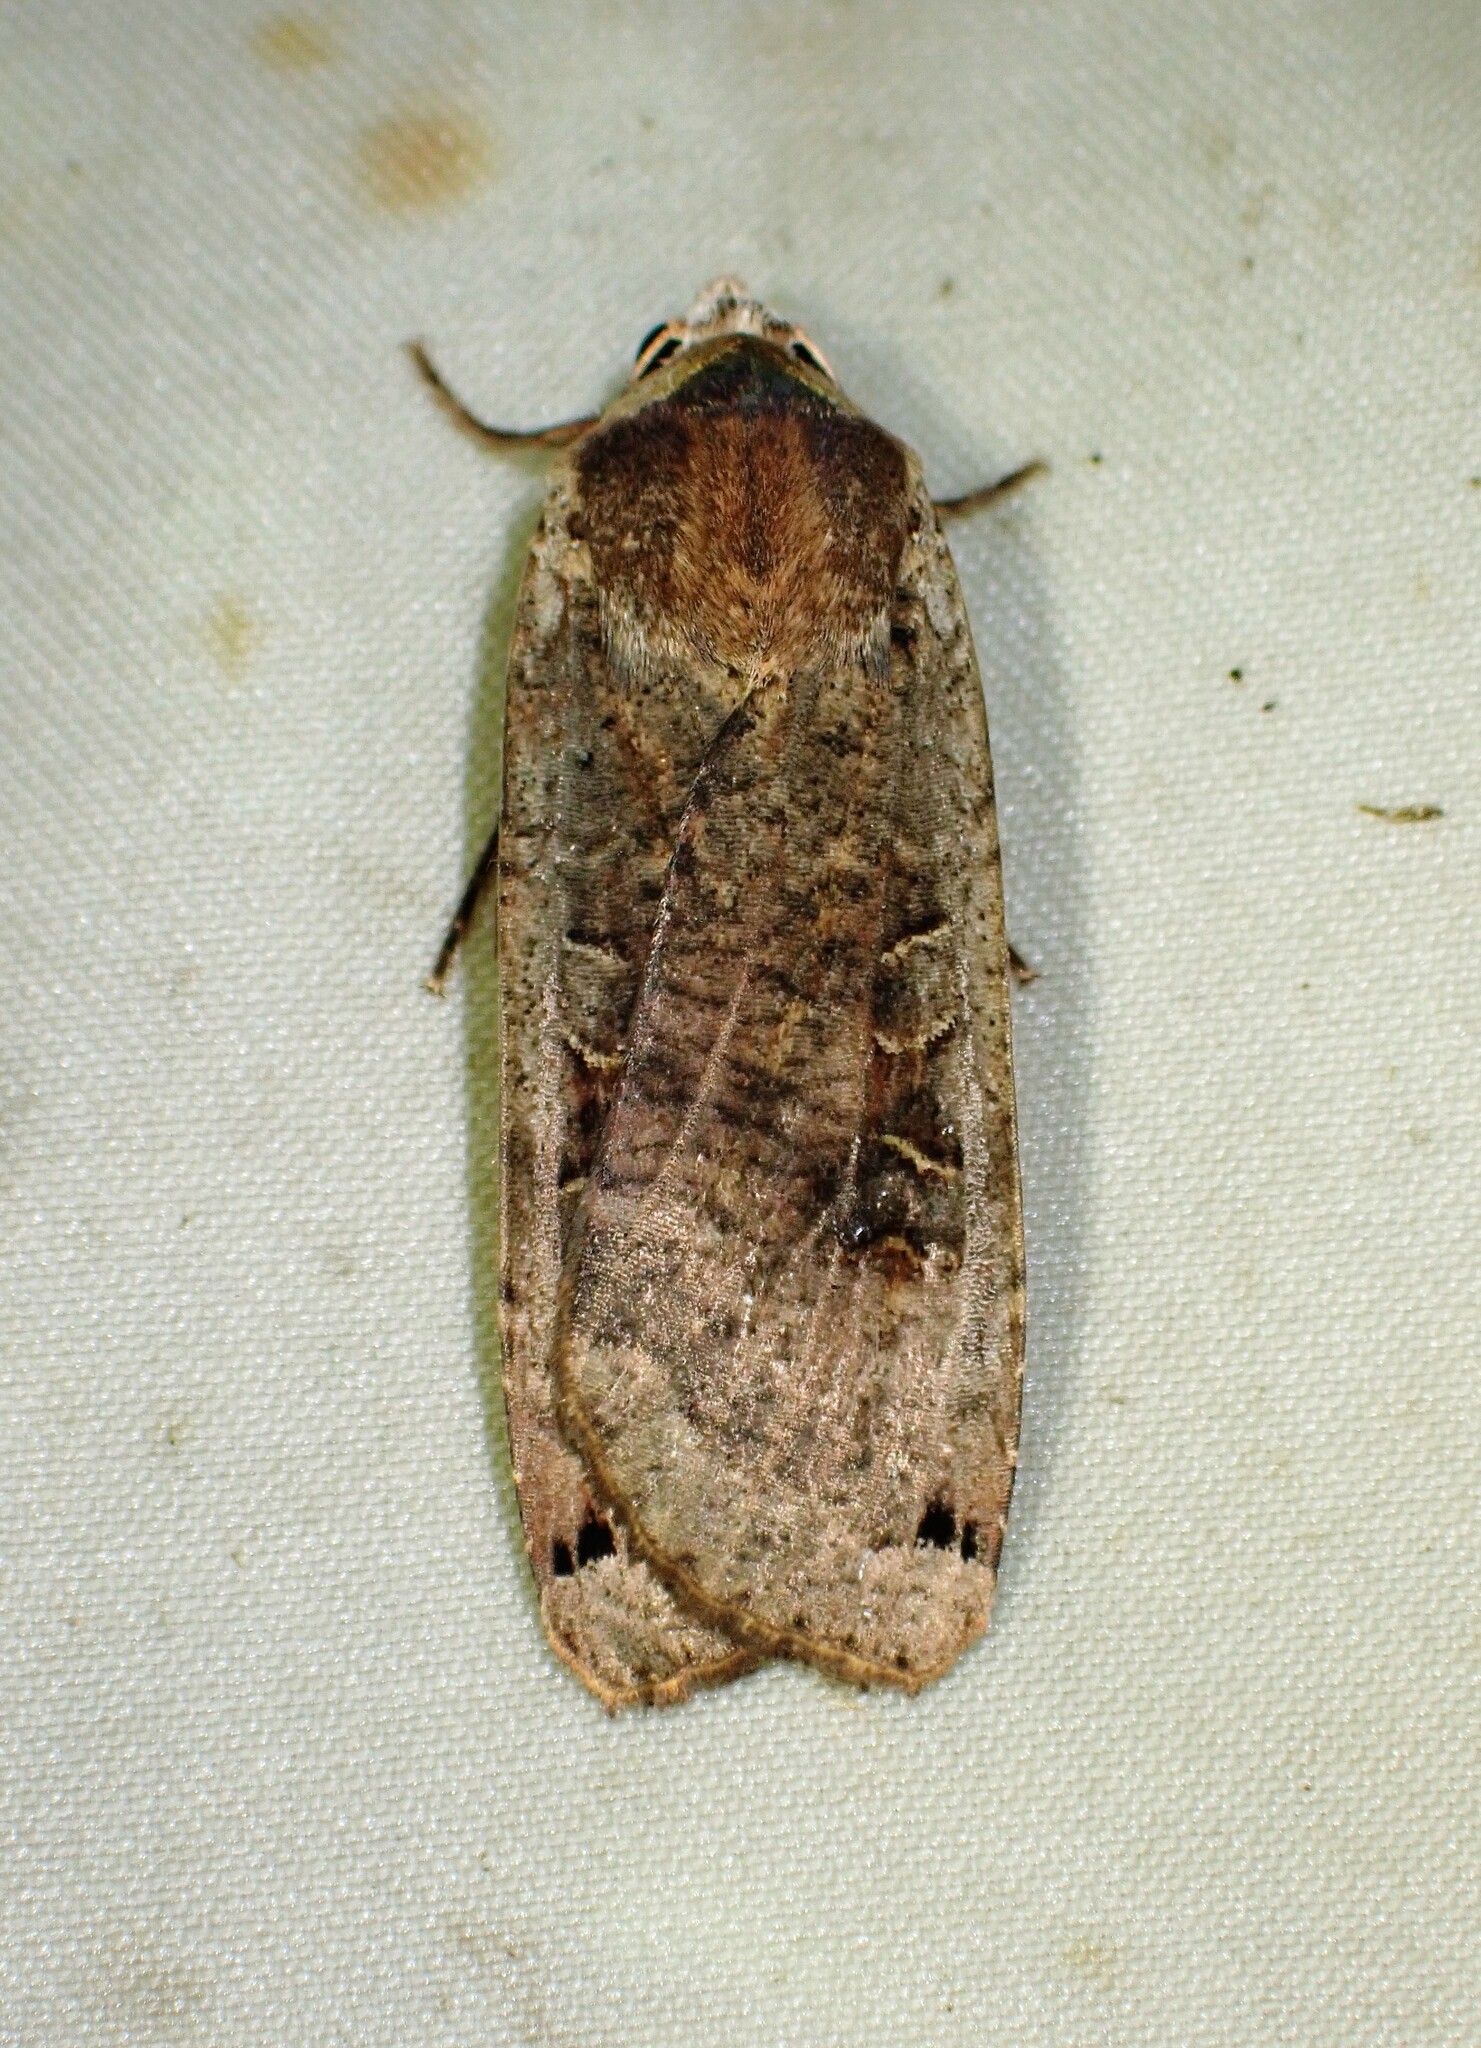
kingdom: Animalia
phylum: Arthropoda
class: Insecta
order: Lepidoptera
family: Noctuidae
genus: Noctua
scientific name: Noctua pronuba
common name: Large yellow underwing
